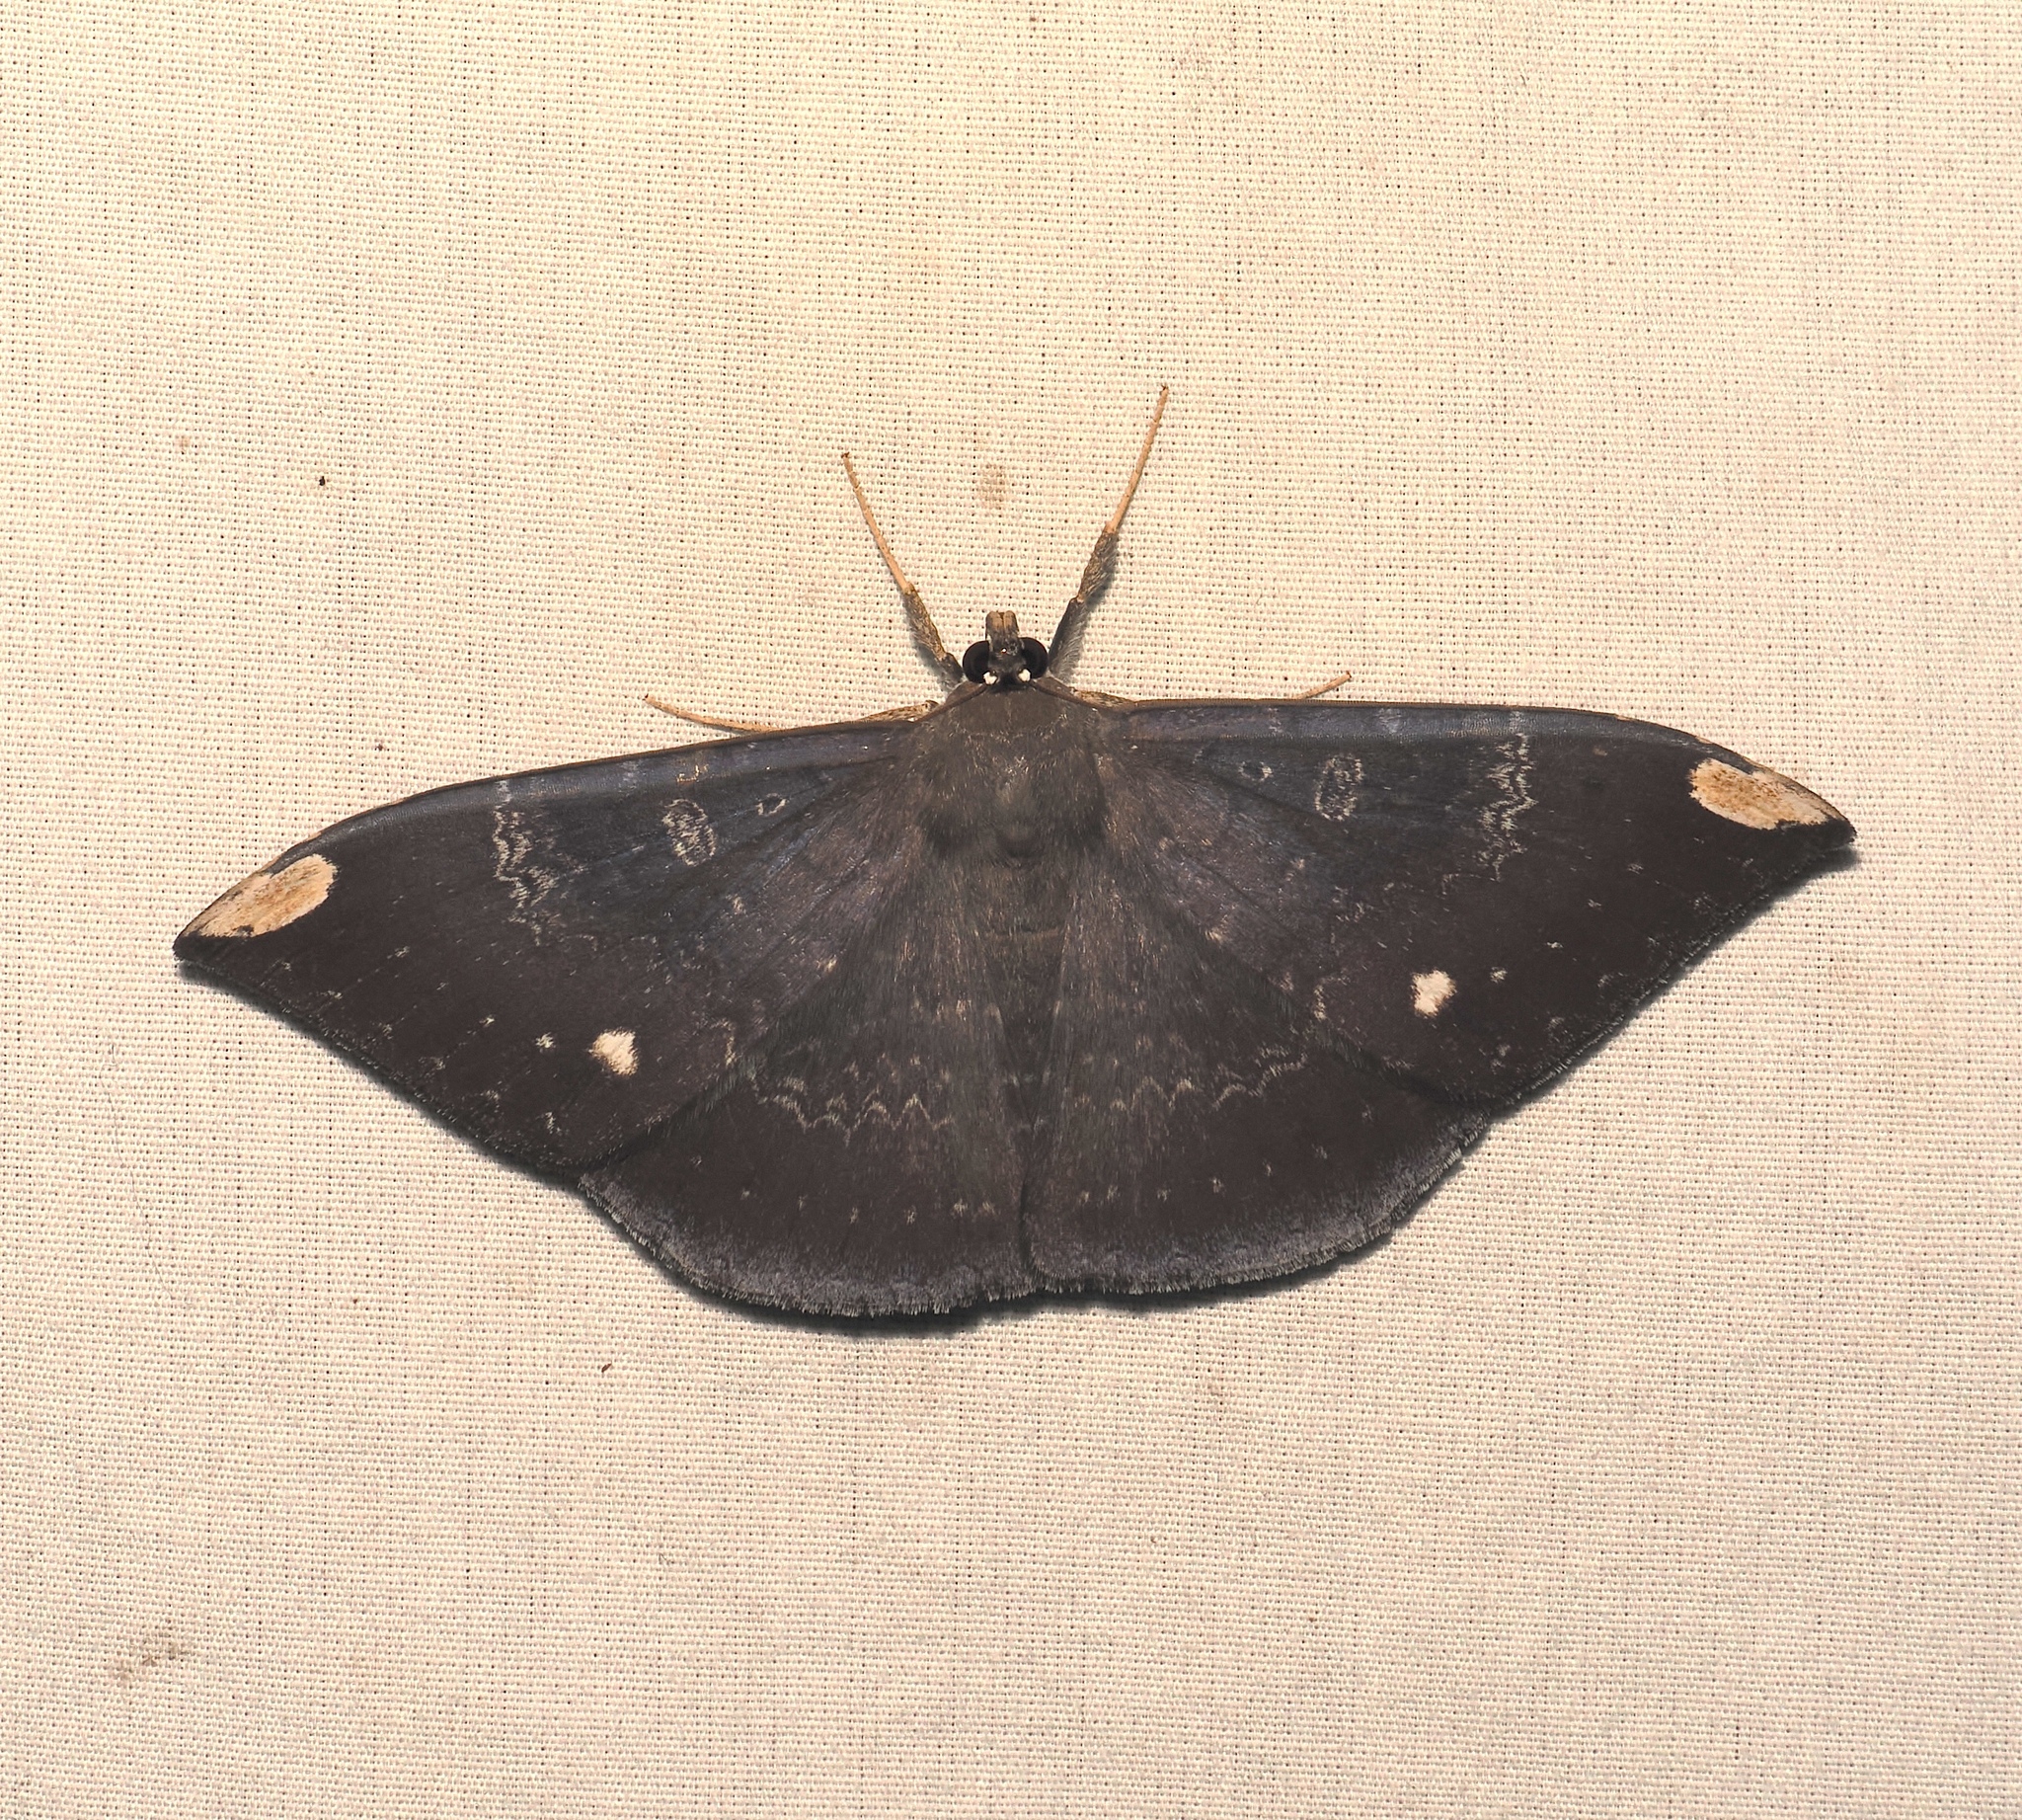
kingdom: Animalia
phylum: Arthropoda
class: Insecta
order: Lepidoptera
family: Erebidae
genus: Hemeroblemma
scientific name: Hemeroblemma dolosa
